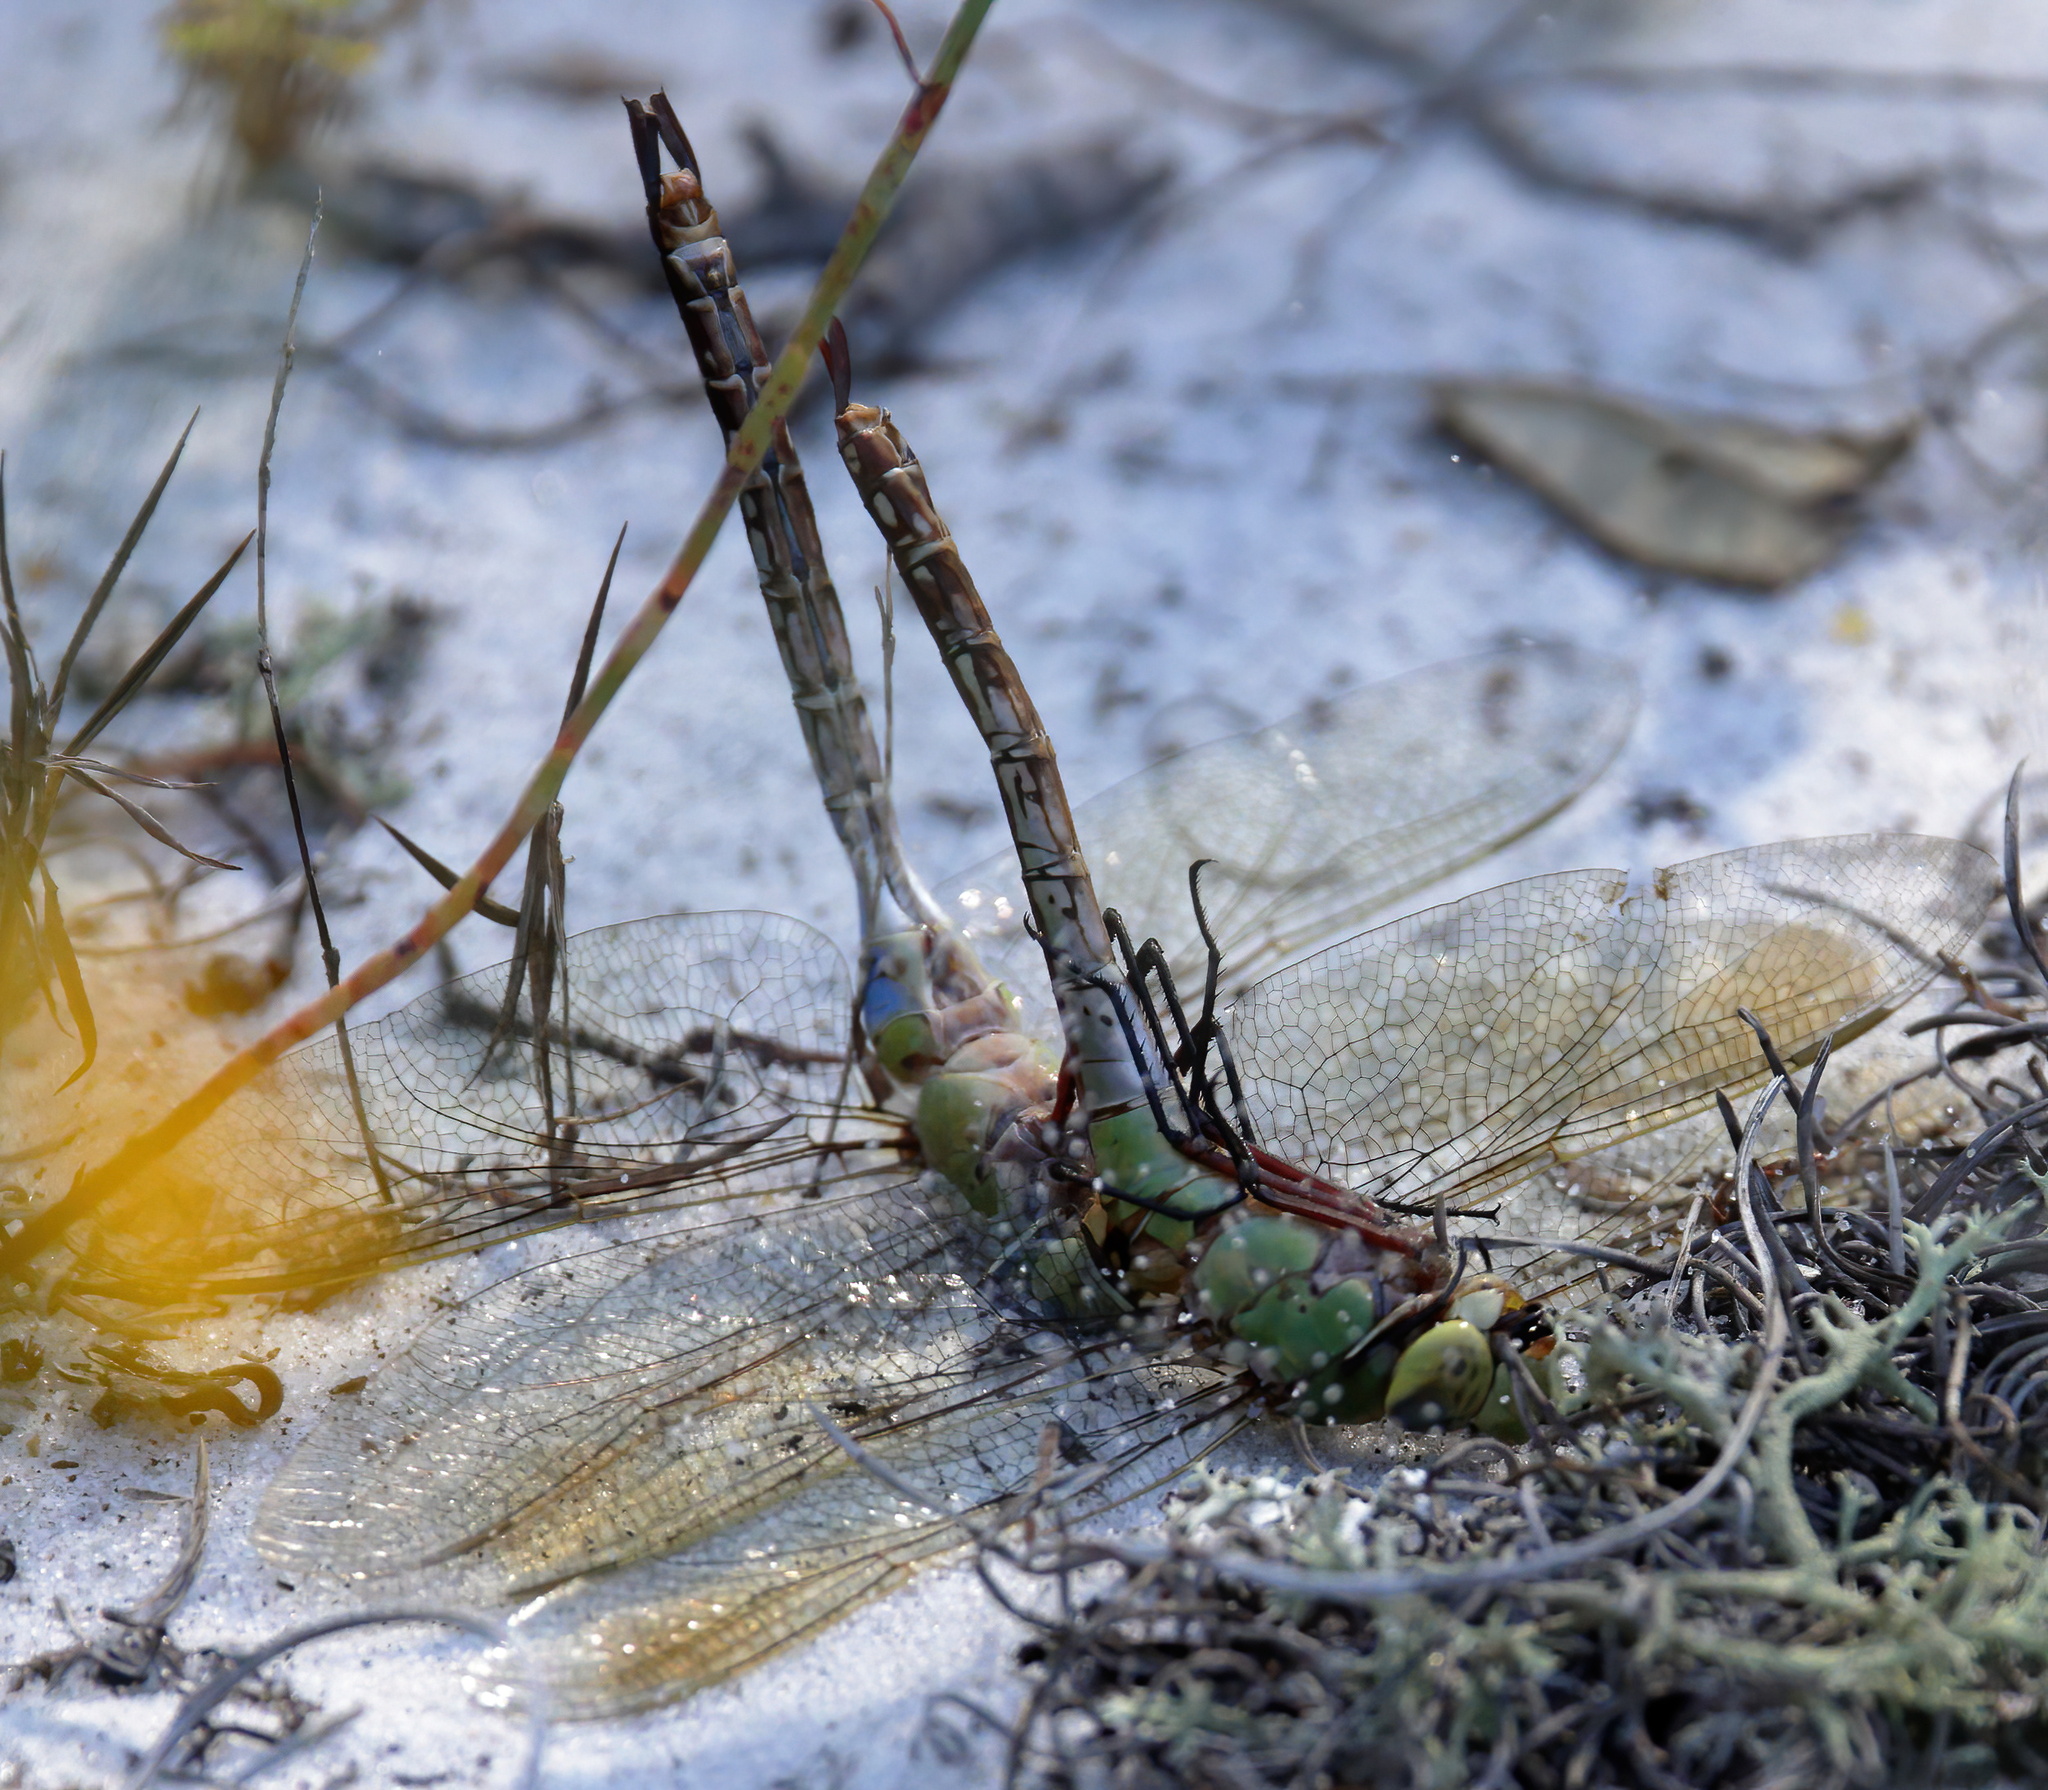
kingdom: Animalia
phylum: Arthropoda
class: Insecta
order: Odonata
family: Aeshnidae
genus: Anax
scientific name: Anax junius
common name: Common green darner
